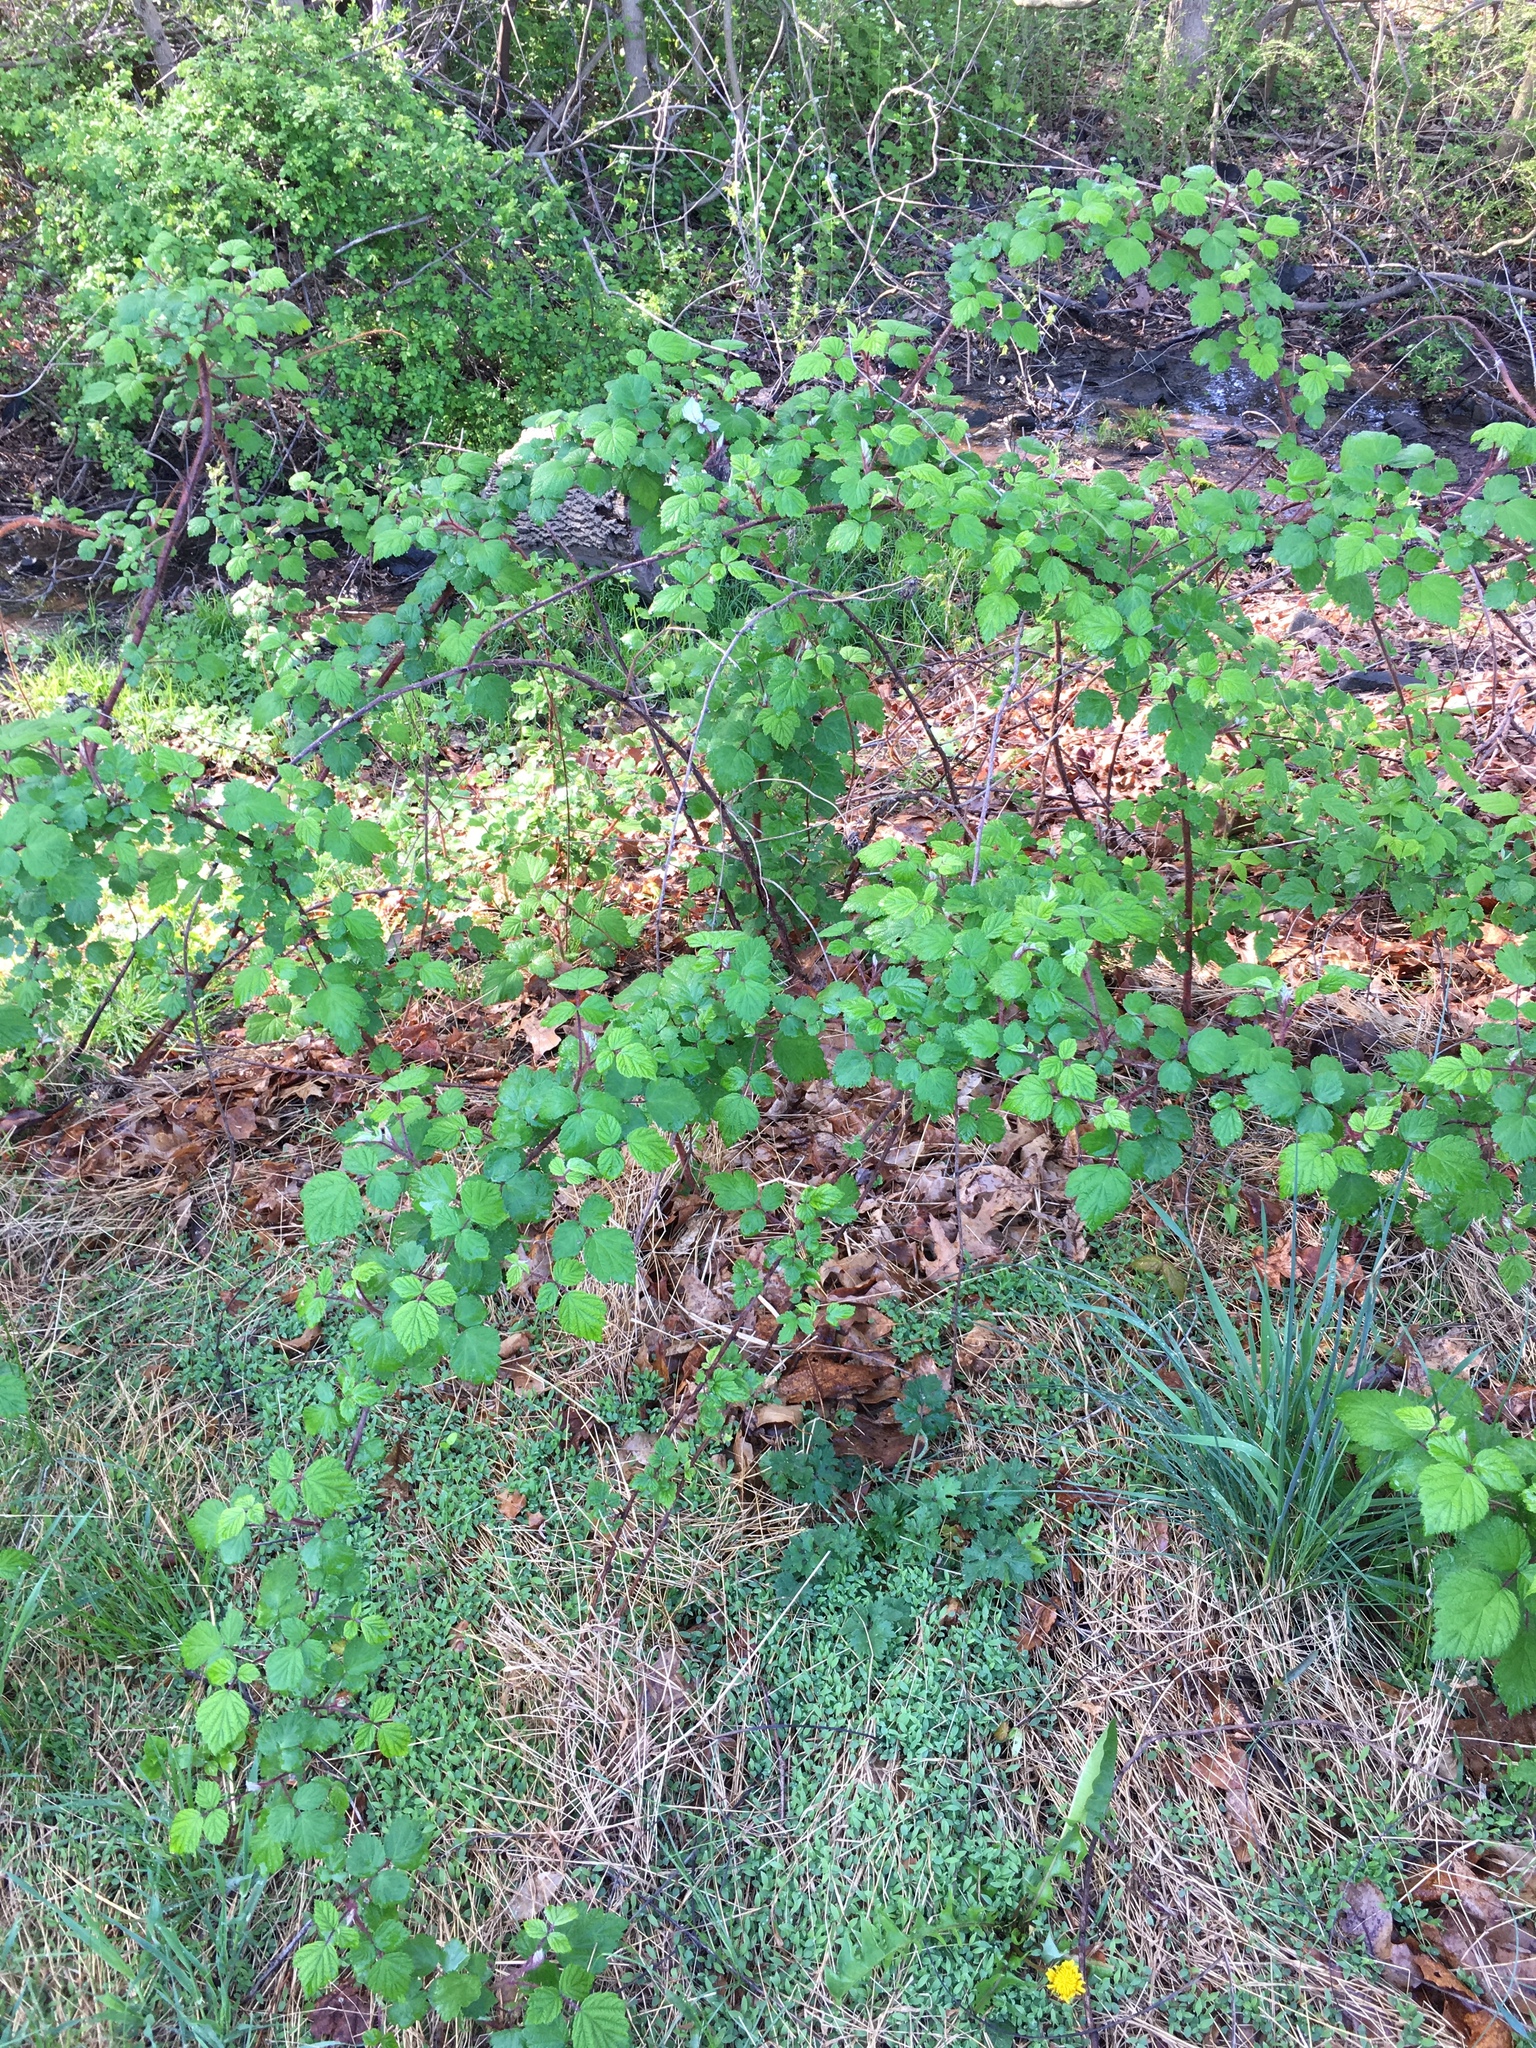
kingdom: Plantae
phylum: Tracheophyta
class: Magnoliopsida
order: Rosales
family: Rosaceae
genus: Rubus
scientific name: Rubus phoenicolasius
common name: Japanese wineberry
